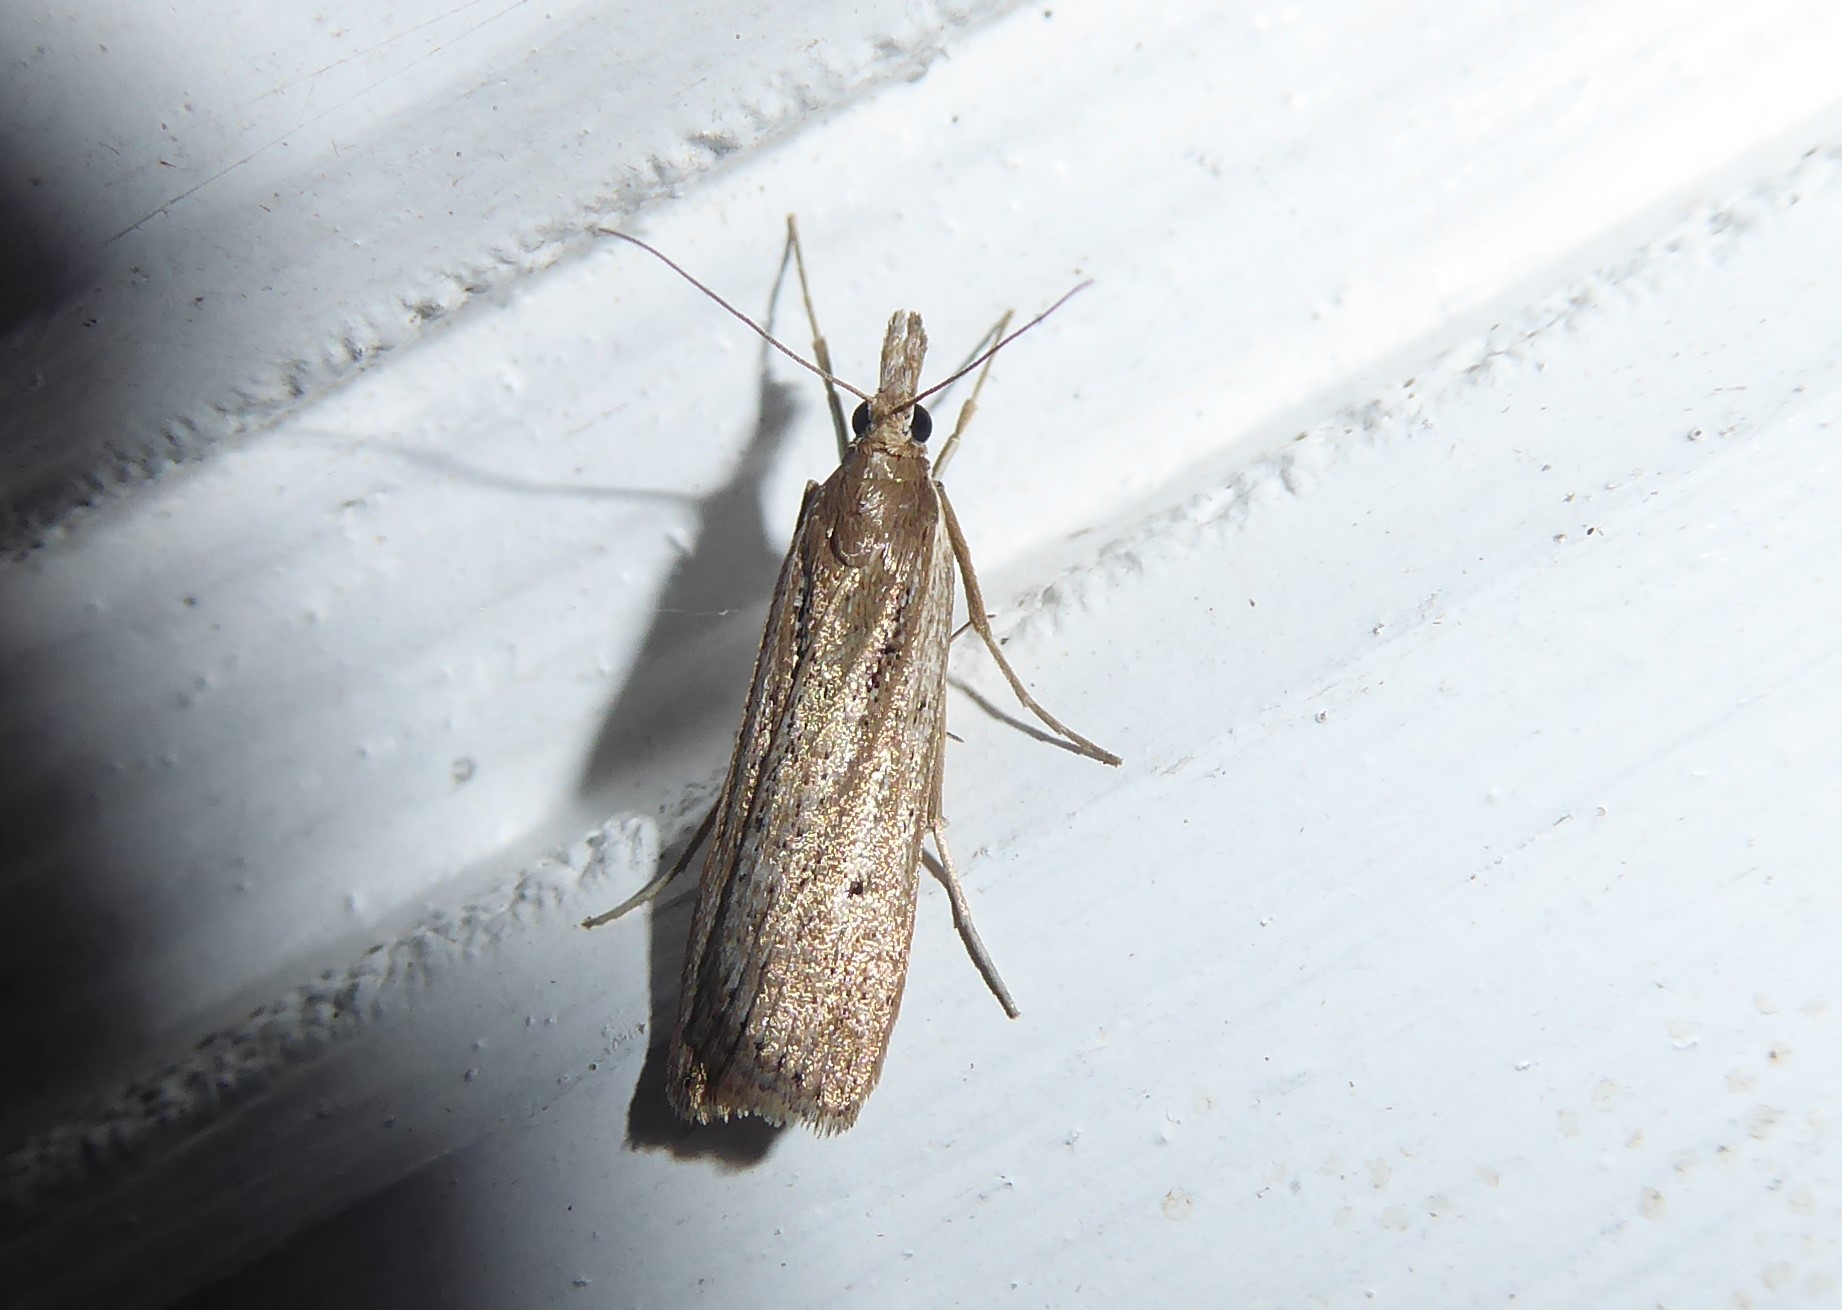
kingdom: Animalia
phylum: Arthropoda
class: Insecta
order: Lepidoptera
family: Crambidae
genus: Eudonia
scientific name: Eudonia sabulosella
